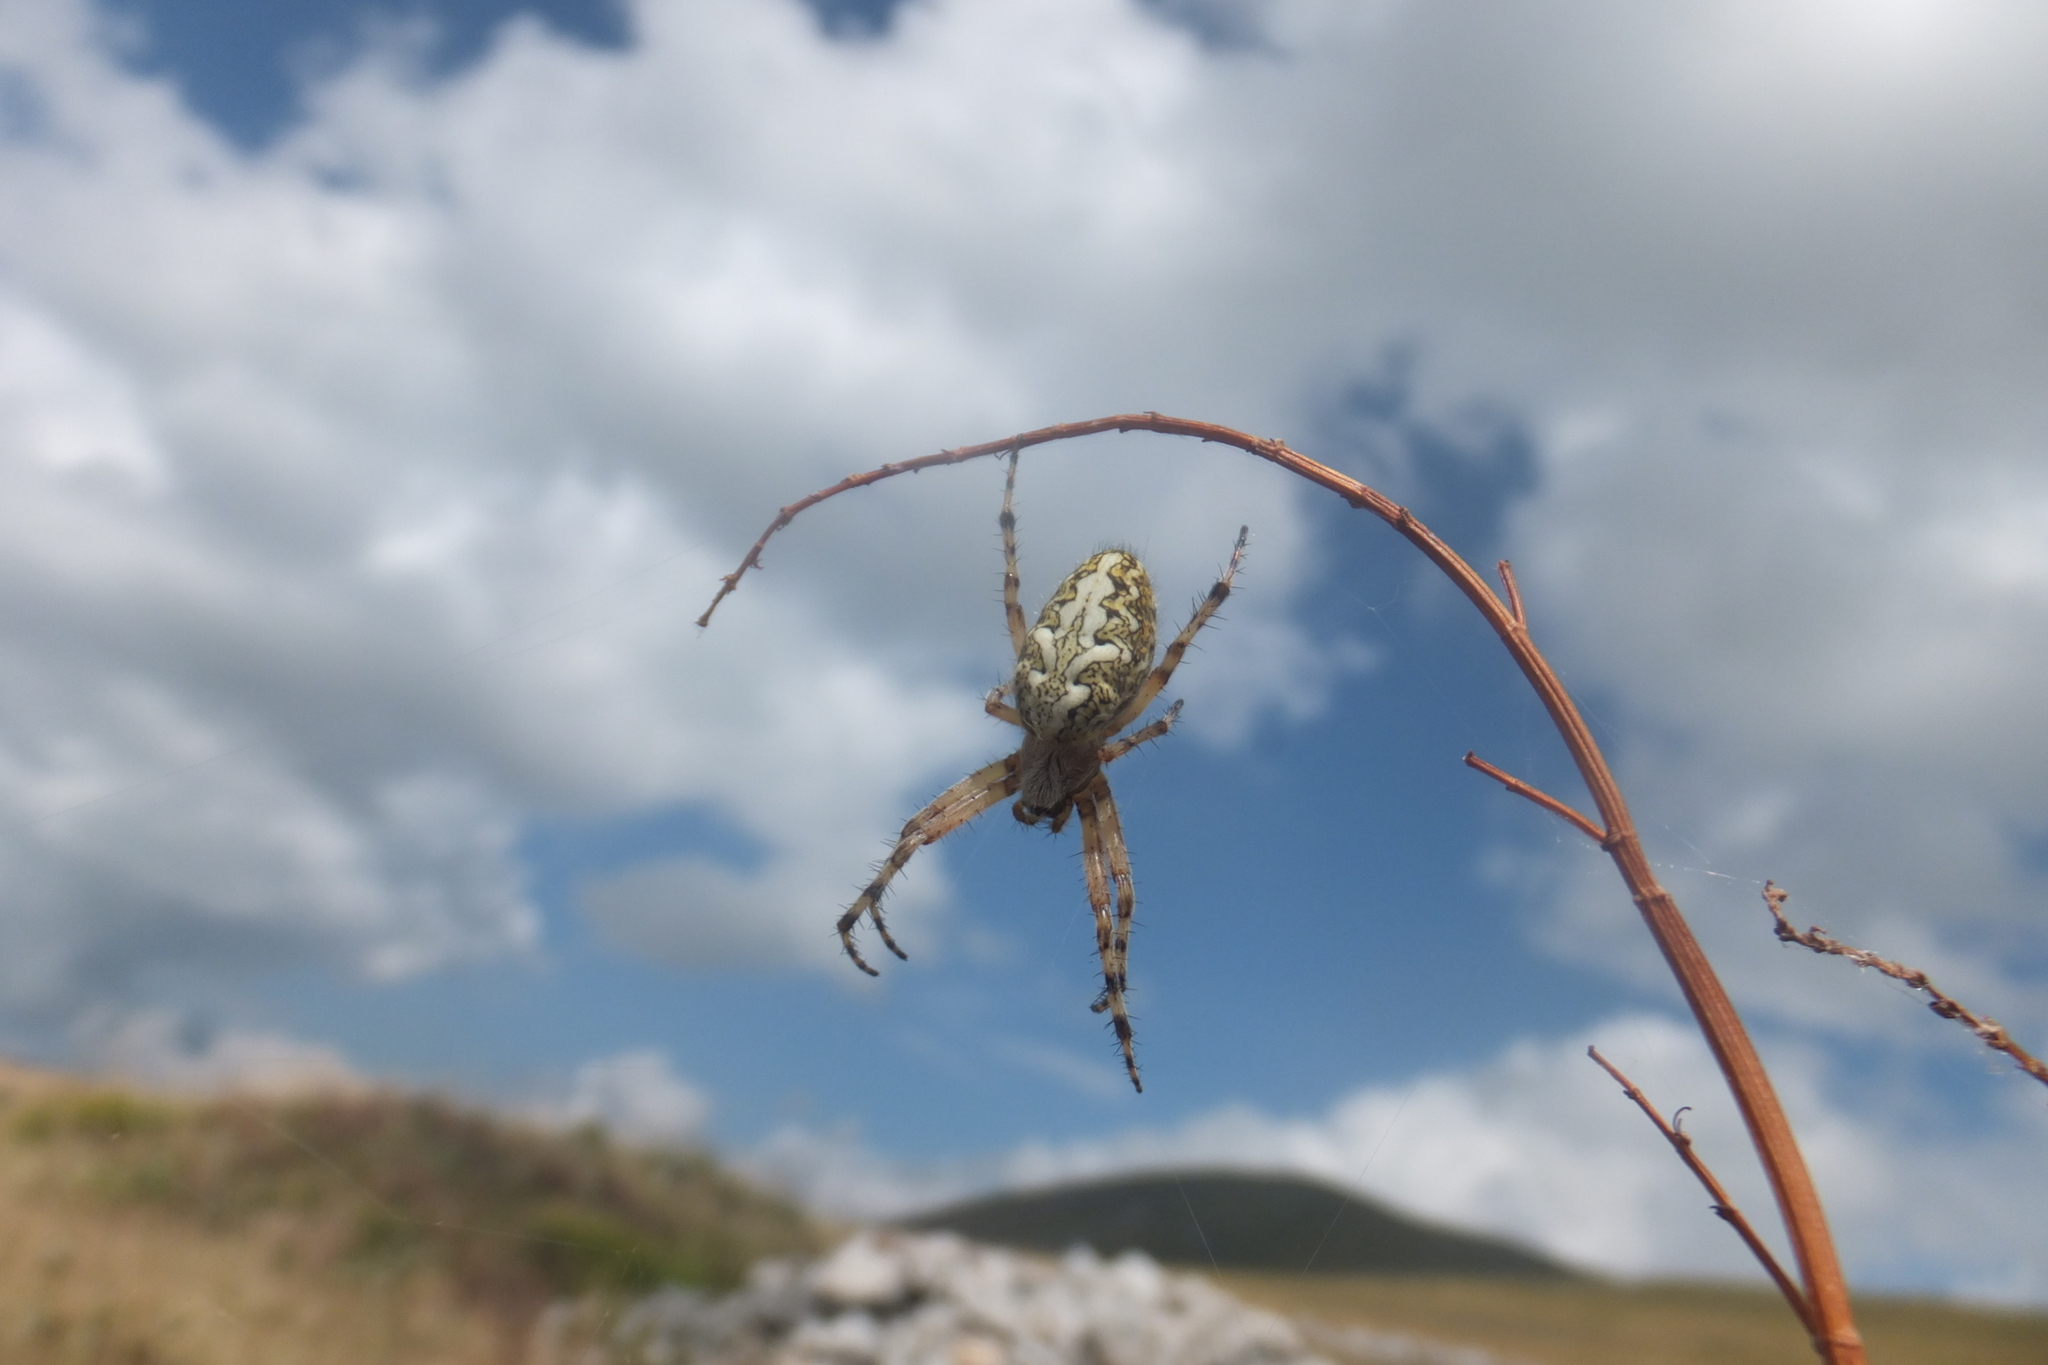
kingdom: Animalia
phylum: Arthropoda
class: Arachnida
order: Araneae
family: Araneidae
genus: Aculepeira
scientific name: Aculepeira ceropegia
